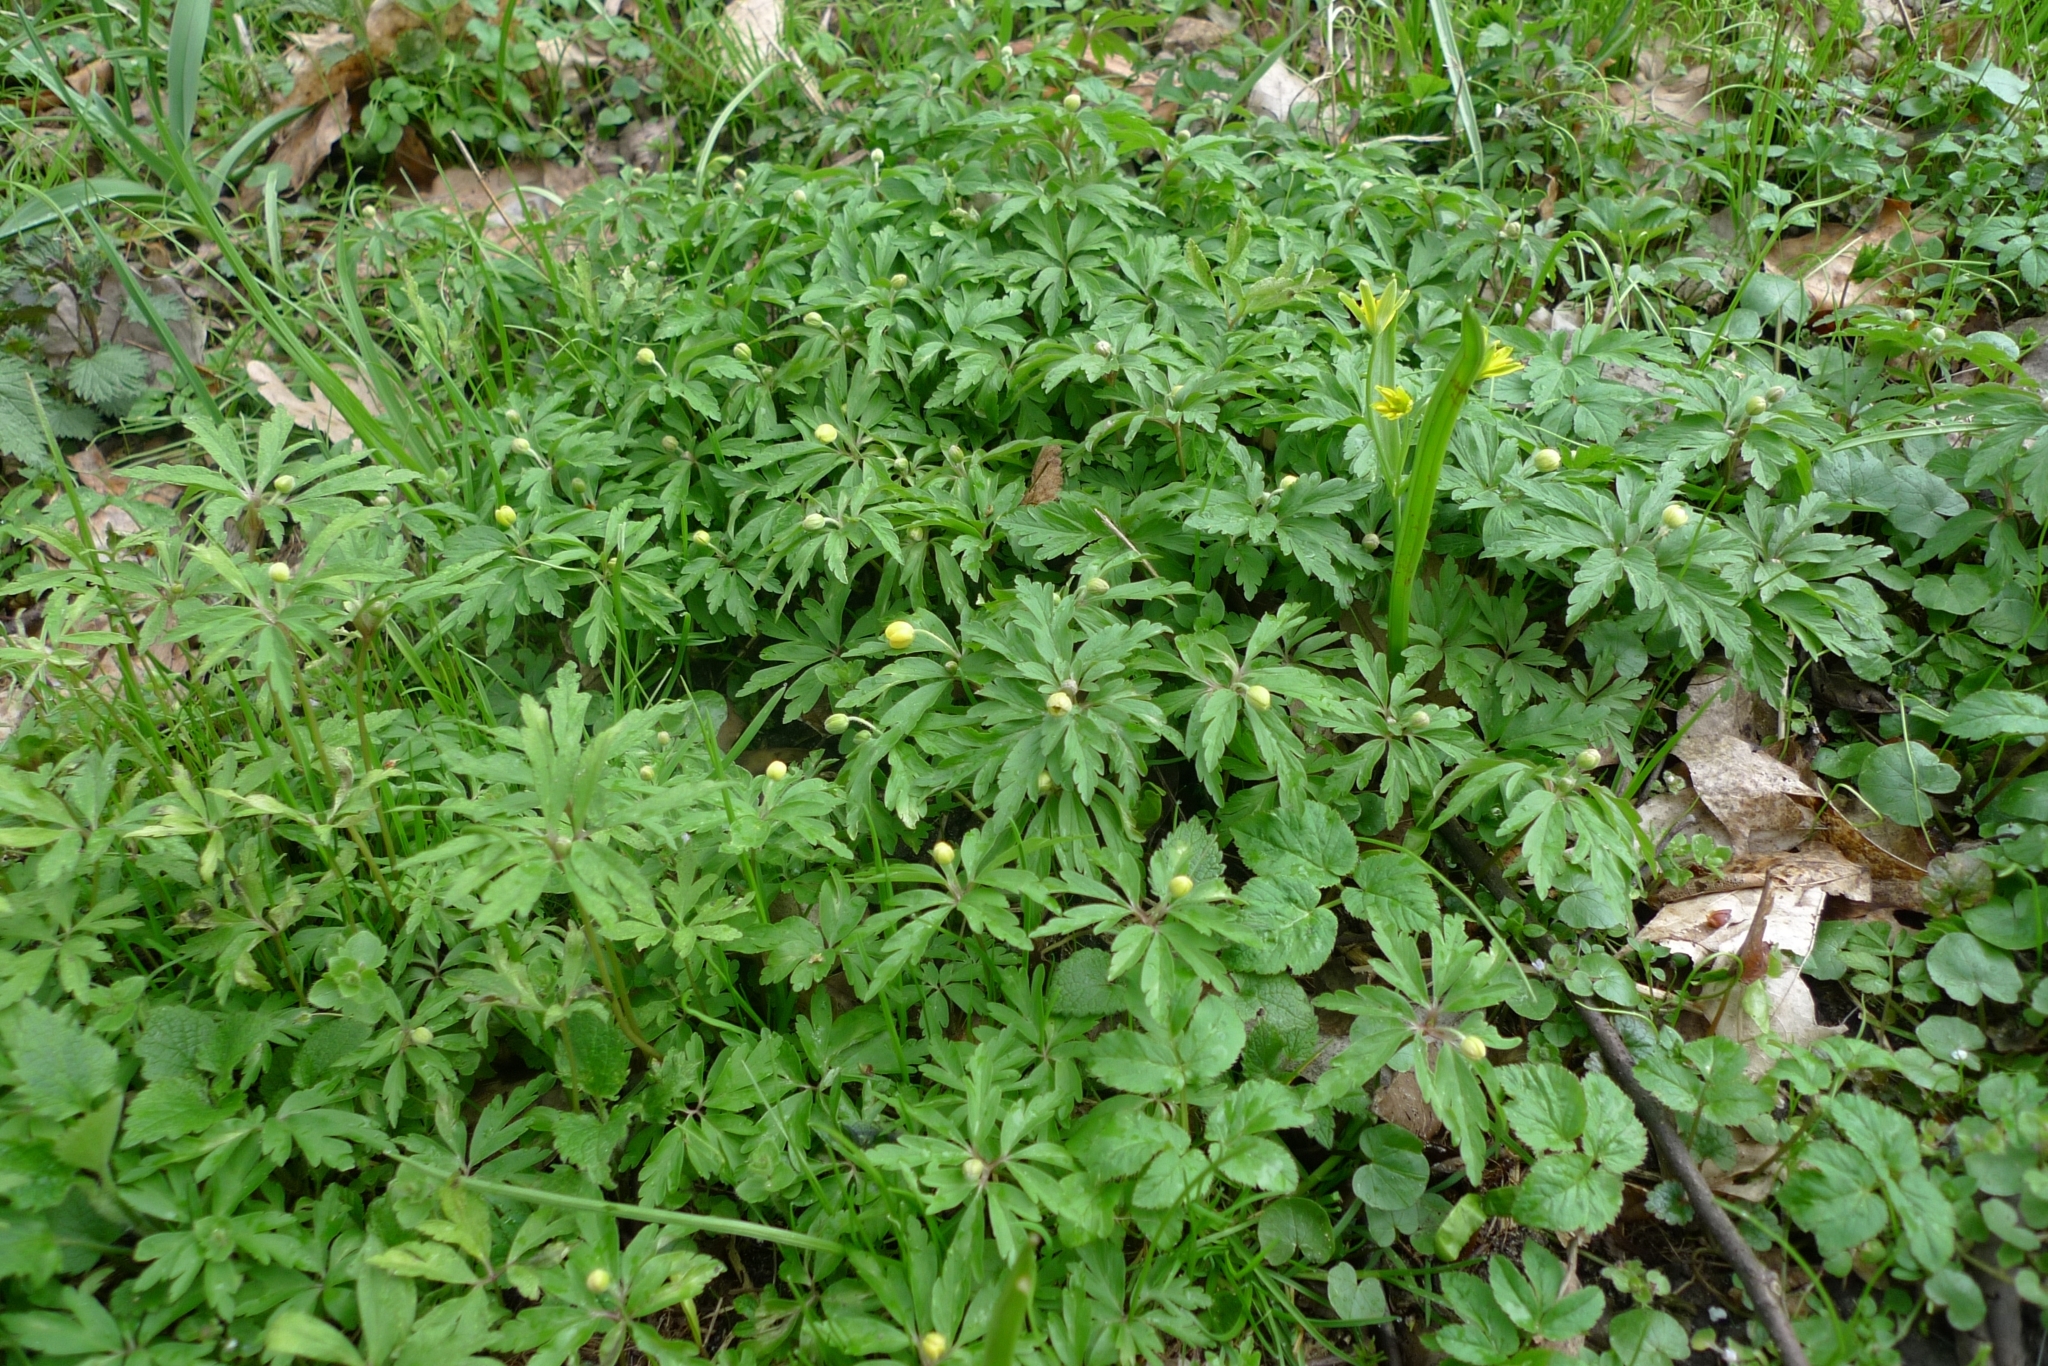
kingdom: Plantae
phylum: Tracheophyta
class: Magnoliopsida
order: Ranunculales
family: Ranunculaceae
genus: Anemone
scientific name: Anemone ranunculoides
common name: Yellow anemone
